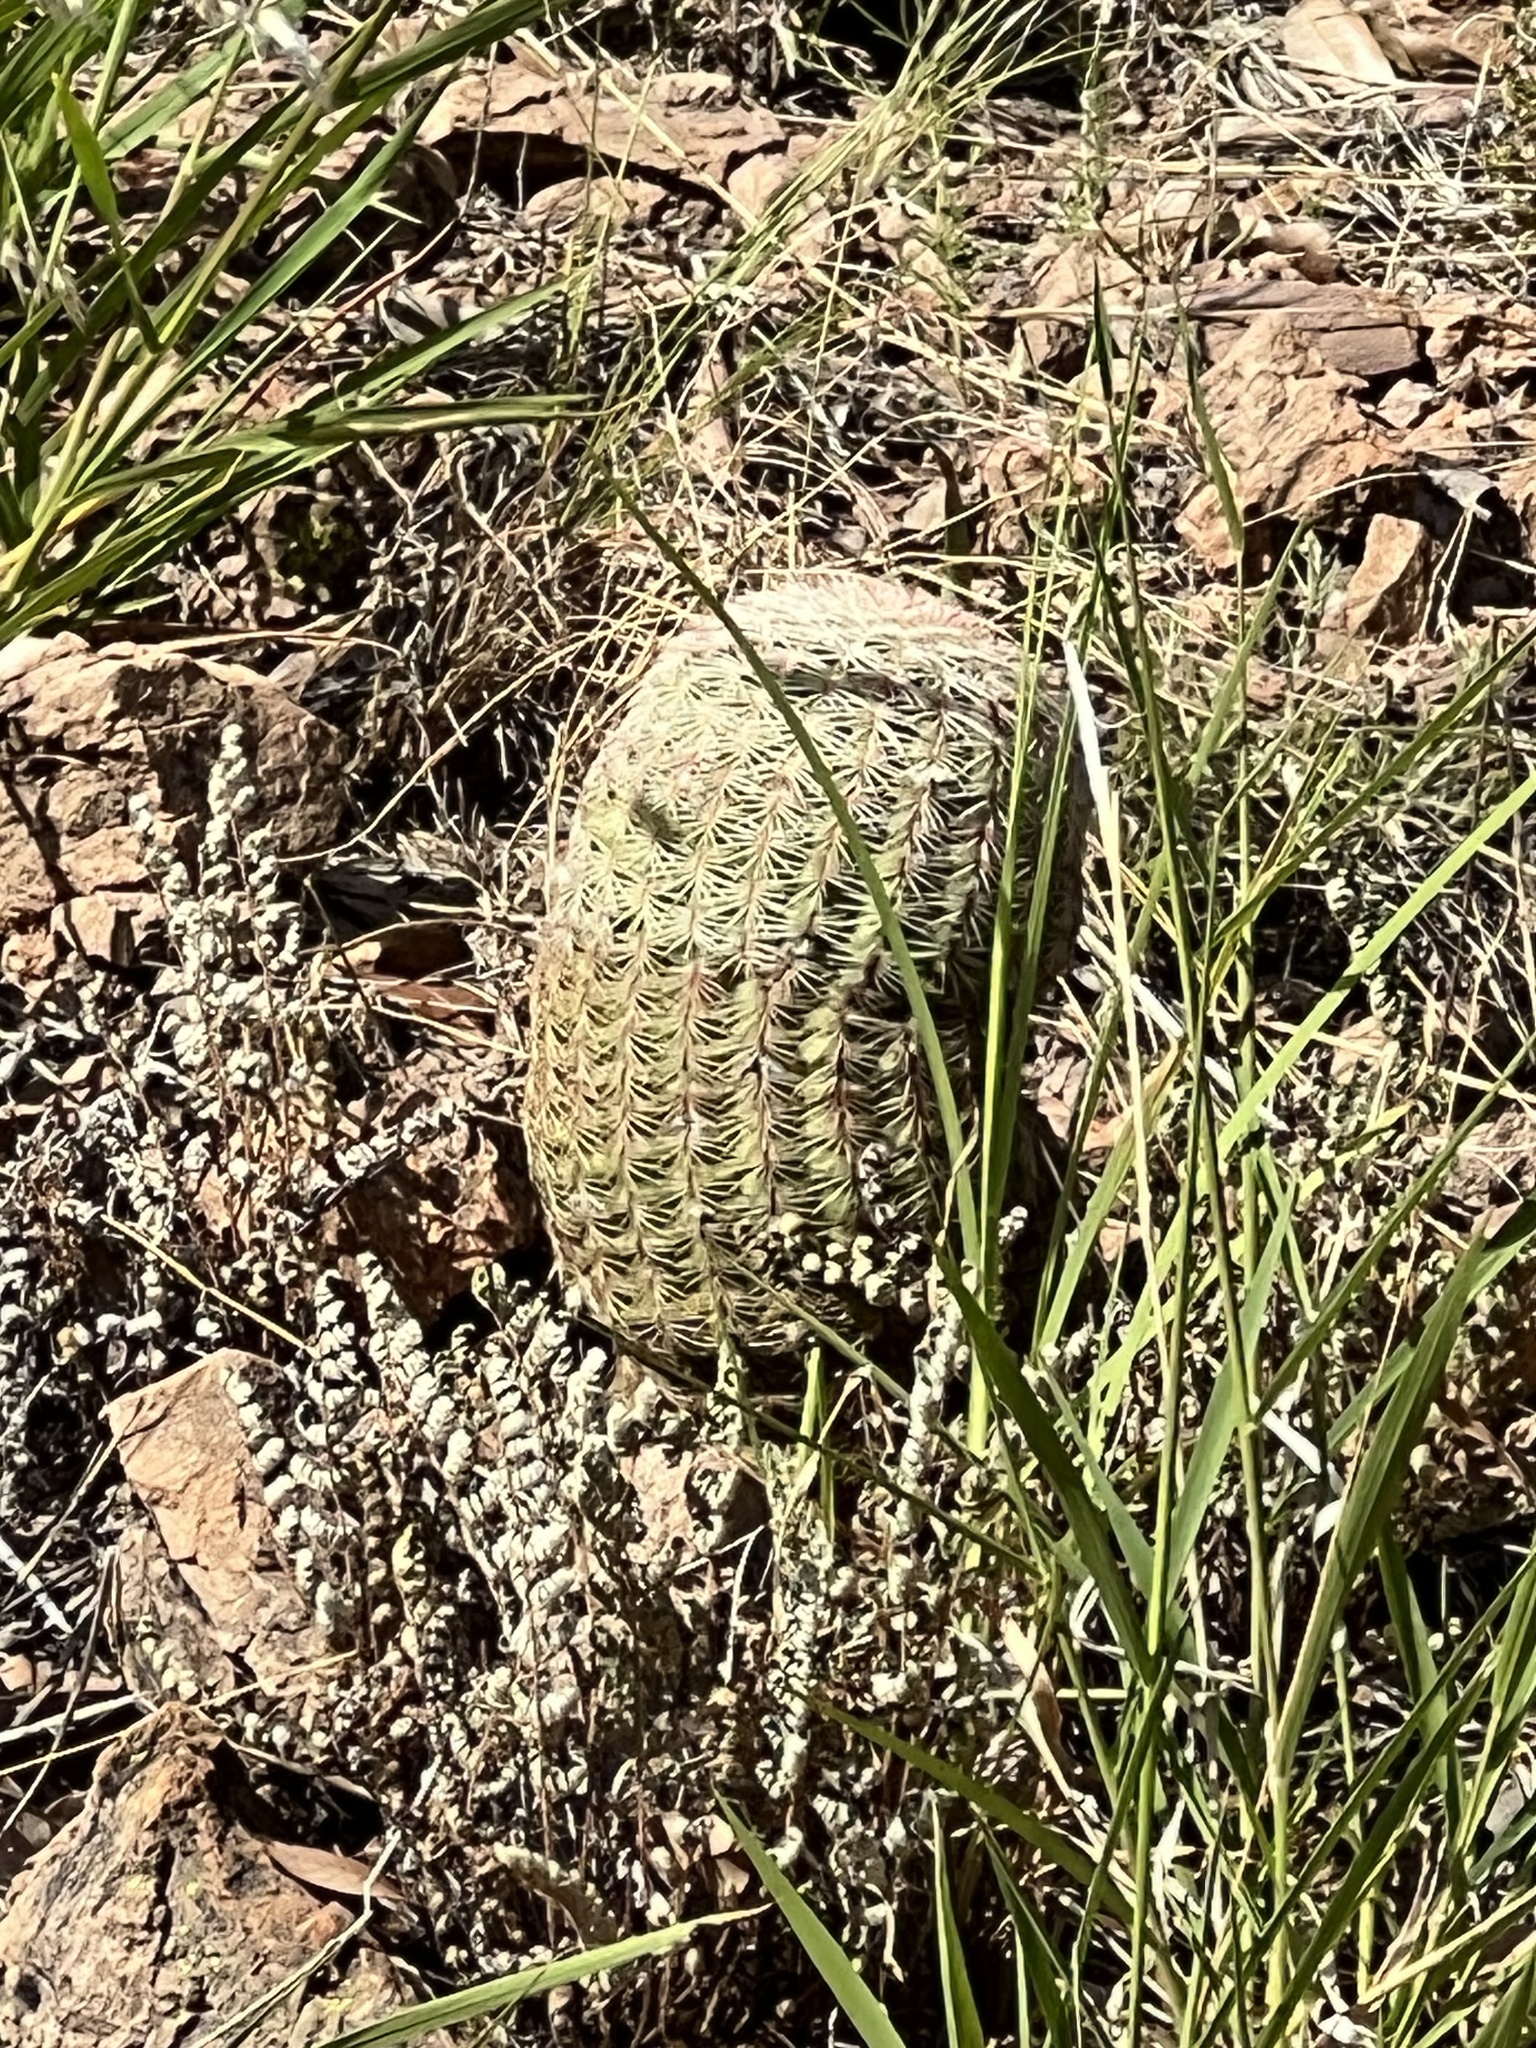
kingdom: Plantae
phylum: Tracheophyta
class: Magnoliopsida
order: Caryophyllales
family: Cactaceae
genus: Echinocereus
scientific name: Echinocereus rigidissimus
